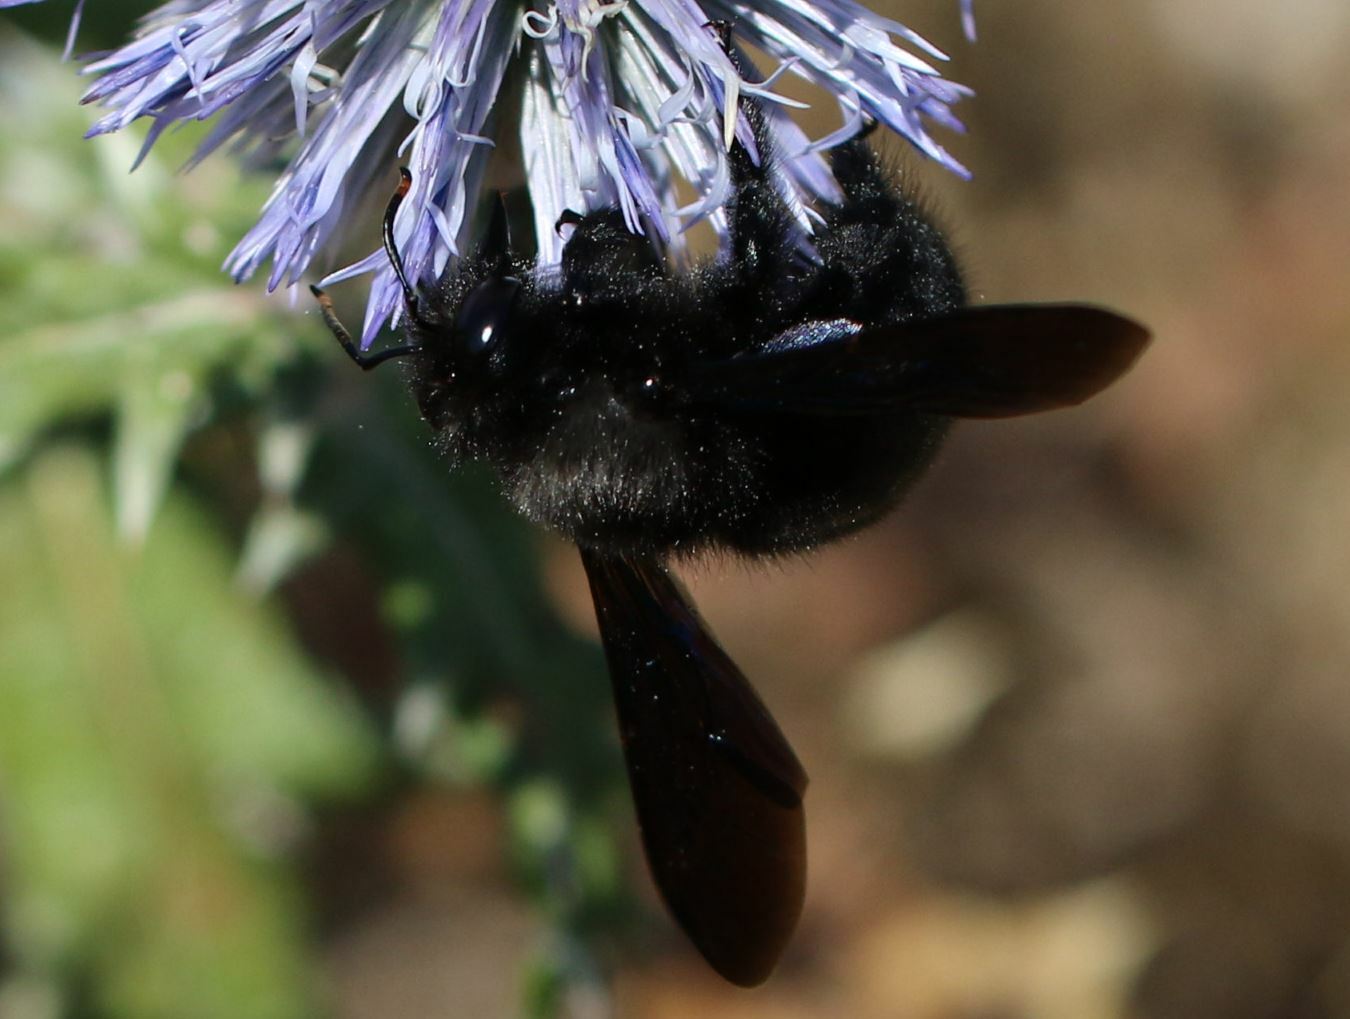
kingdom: Animalia
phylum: Arthropoda
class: Insecta
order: Hymenoptera
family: Apidae
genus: Xylocopa
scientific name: Xylocopa violacea
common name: Violet carpenter bee
